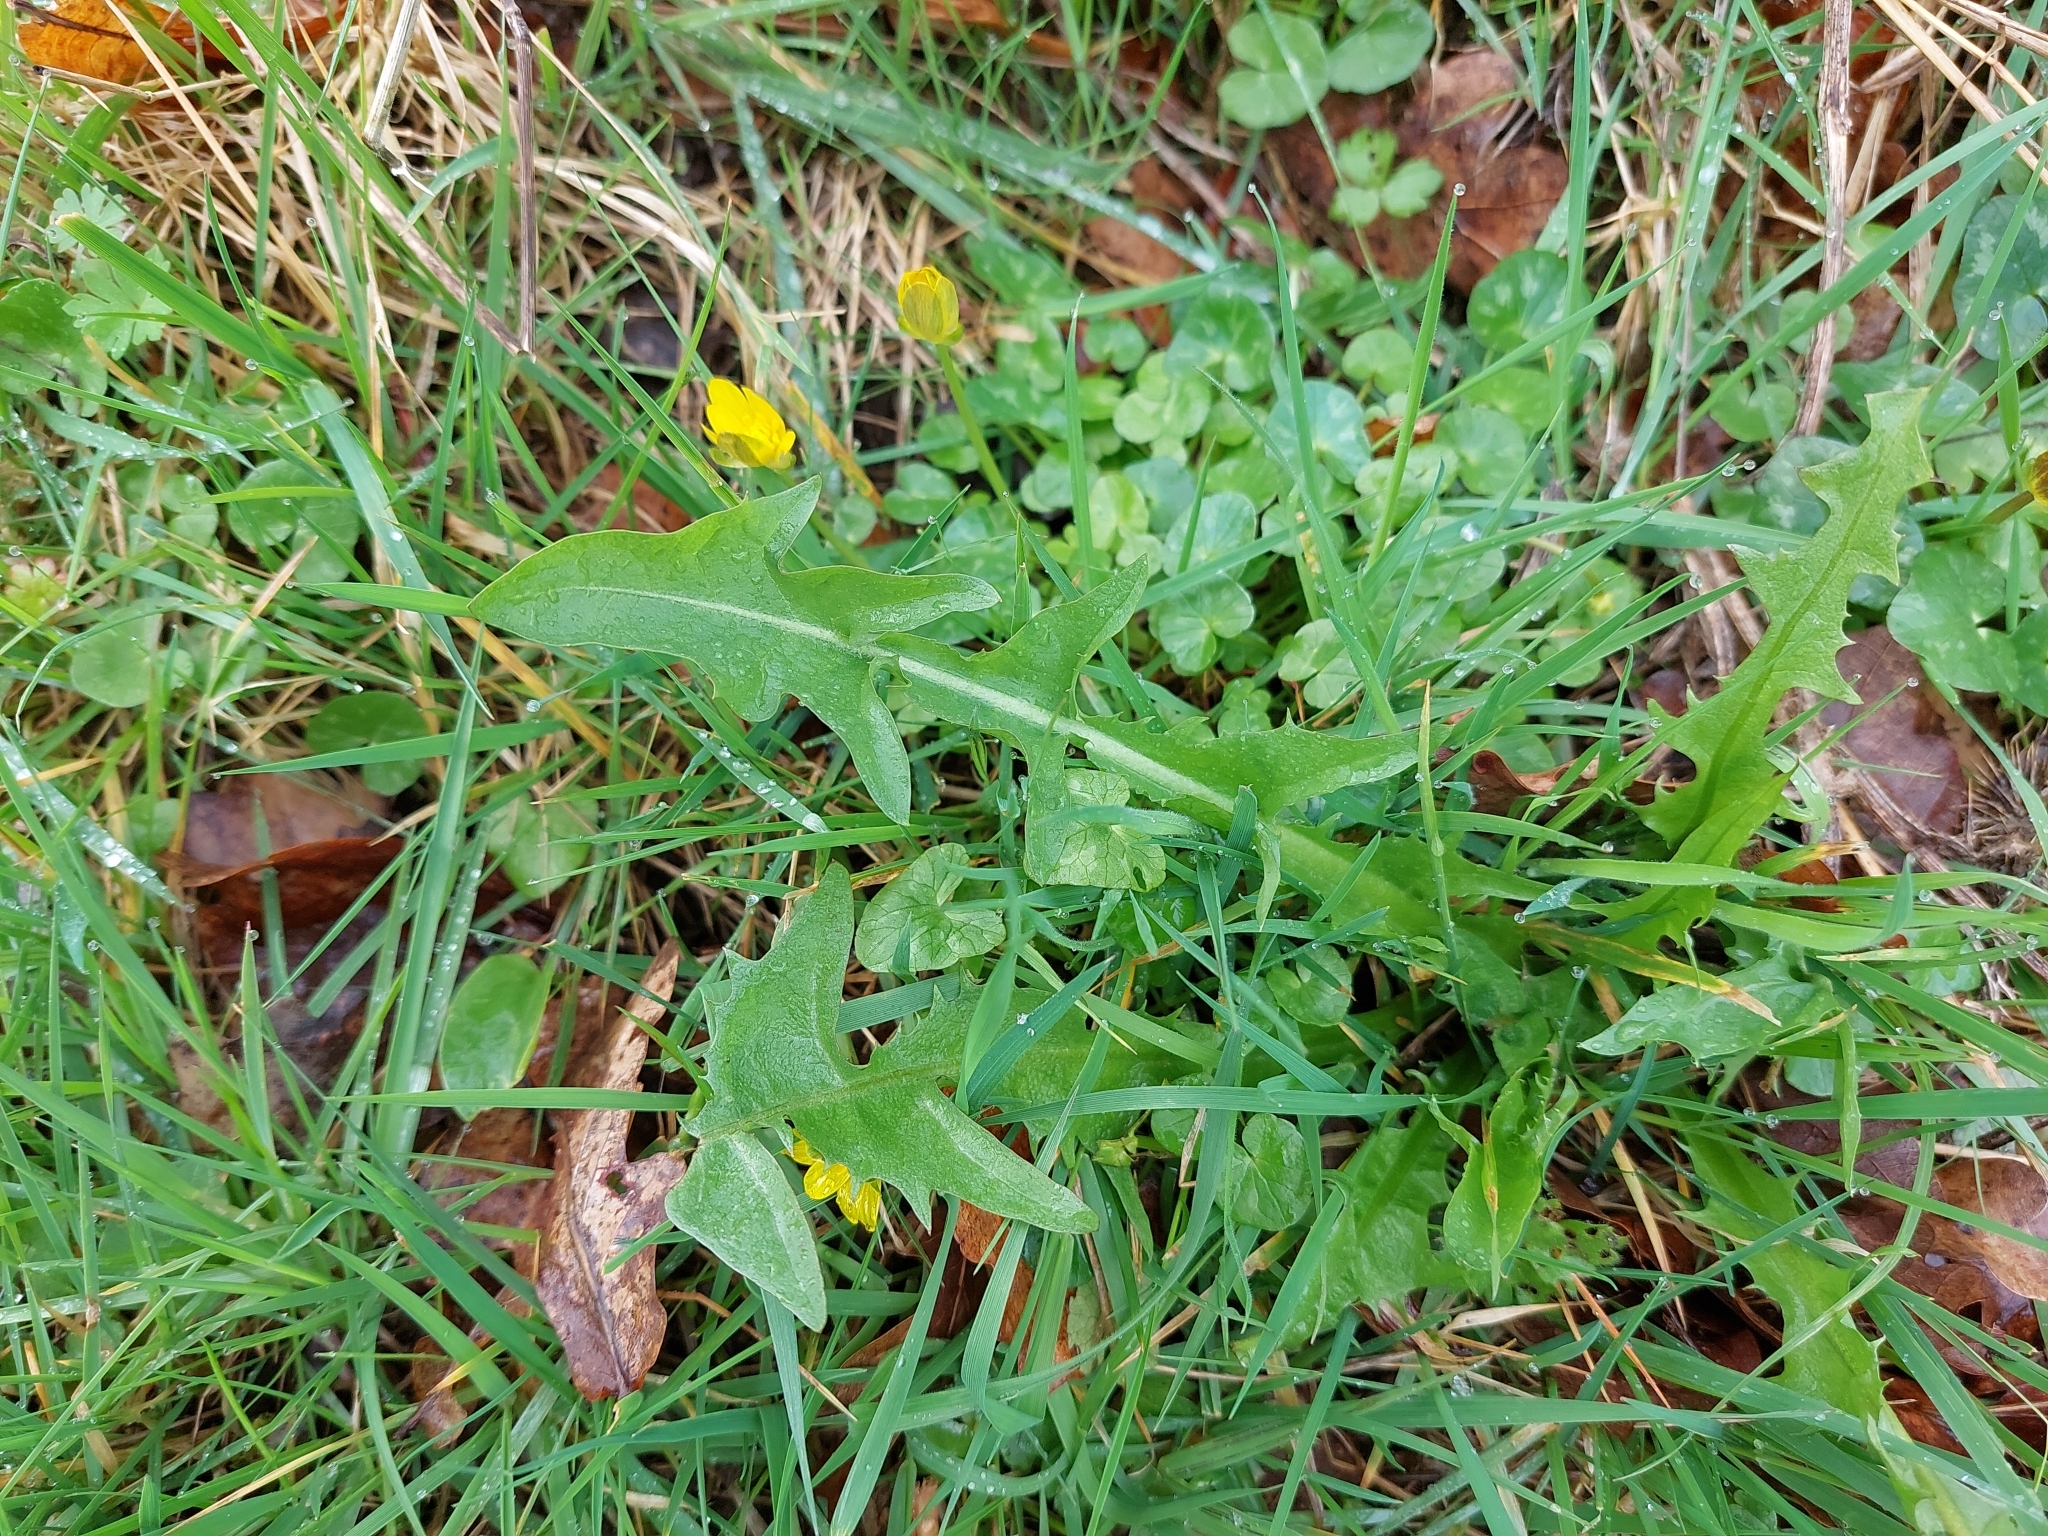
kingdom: Plantae
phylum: Tracheophyta
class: Magnoliopsida
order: Asterales
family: Asteraceae
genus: Taraxacum
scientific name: Taraxacum officinale
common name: Common dandelion
